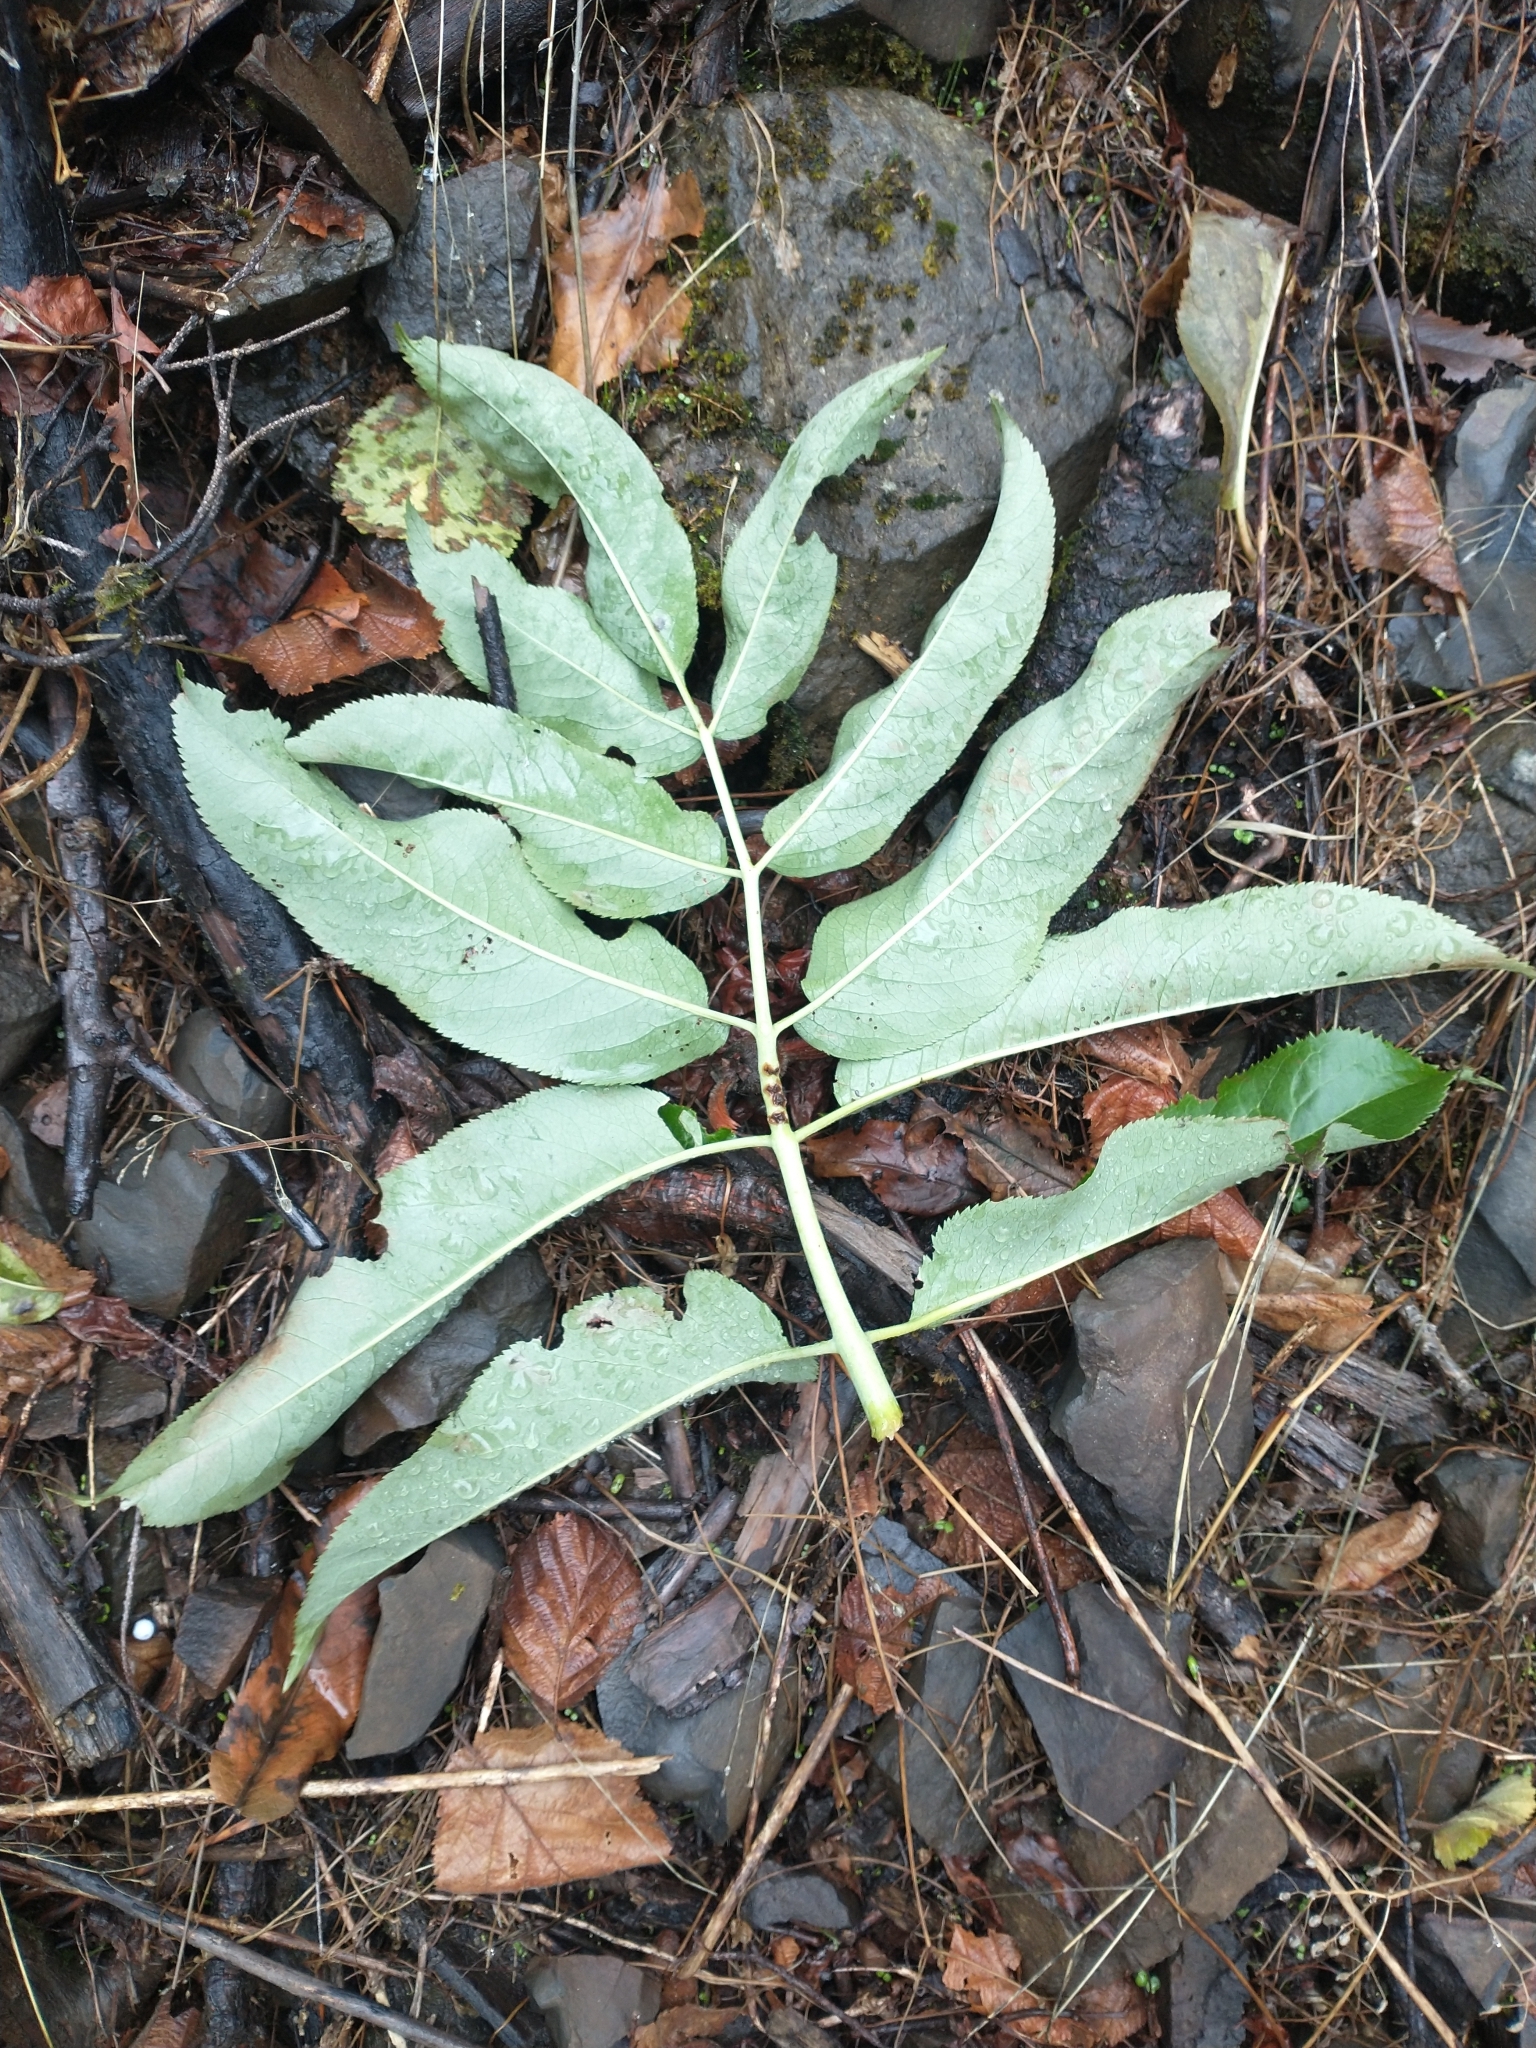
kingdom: Plantae
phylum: Tracheophyta
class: Magnoliopsida
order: Dipsacales
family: Viburnaceae
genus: Sambucus
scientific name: Sambucus cerulea
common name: Blue elder
